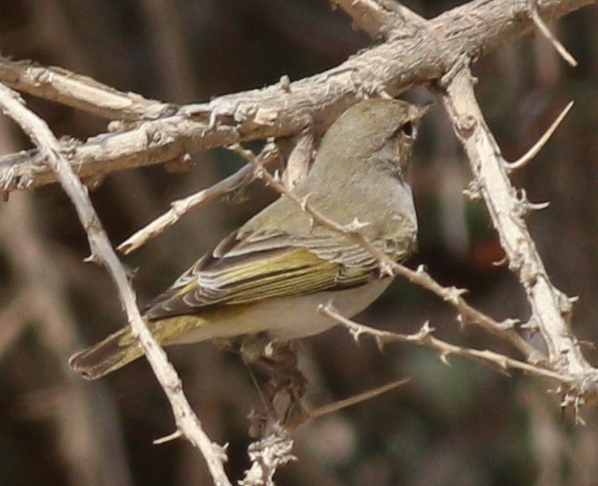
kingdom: Animalia
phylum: Chordata
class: Aves
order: Passeriformes
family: Phylloscopidae
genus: Phylloscopus
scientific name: Phylloscopus orientalis
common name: Eastern bonelli's warbler
